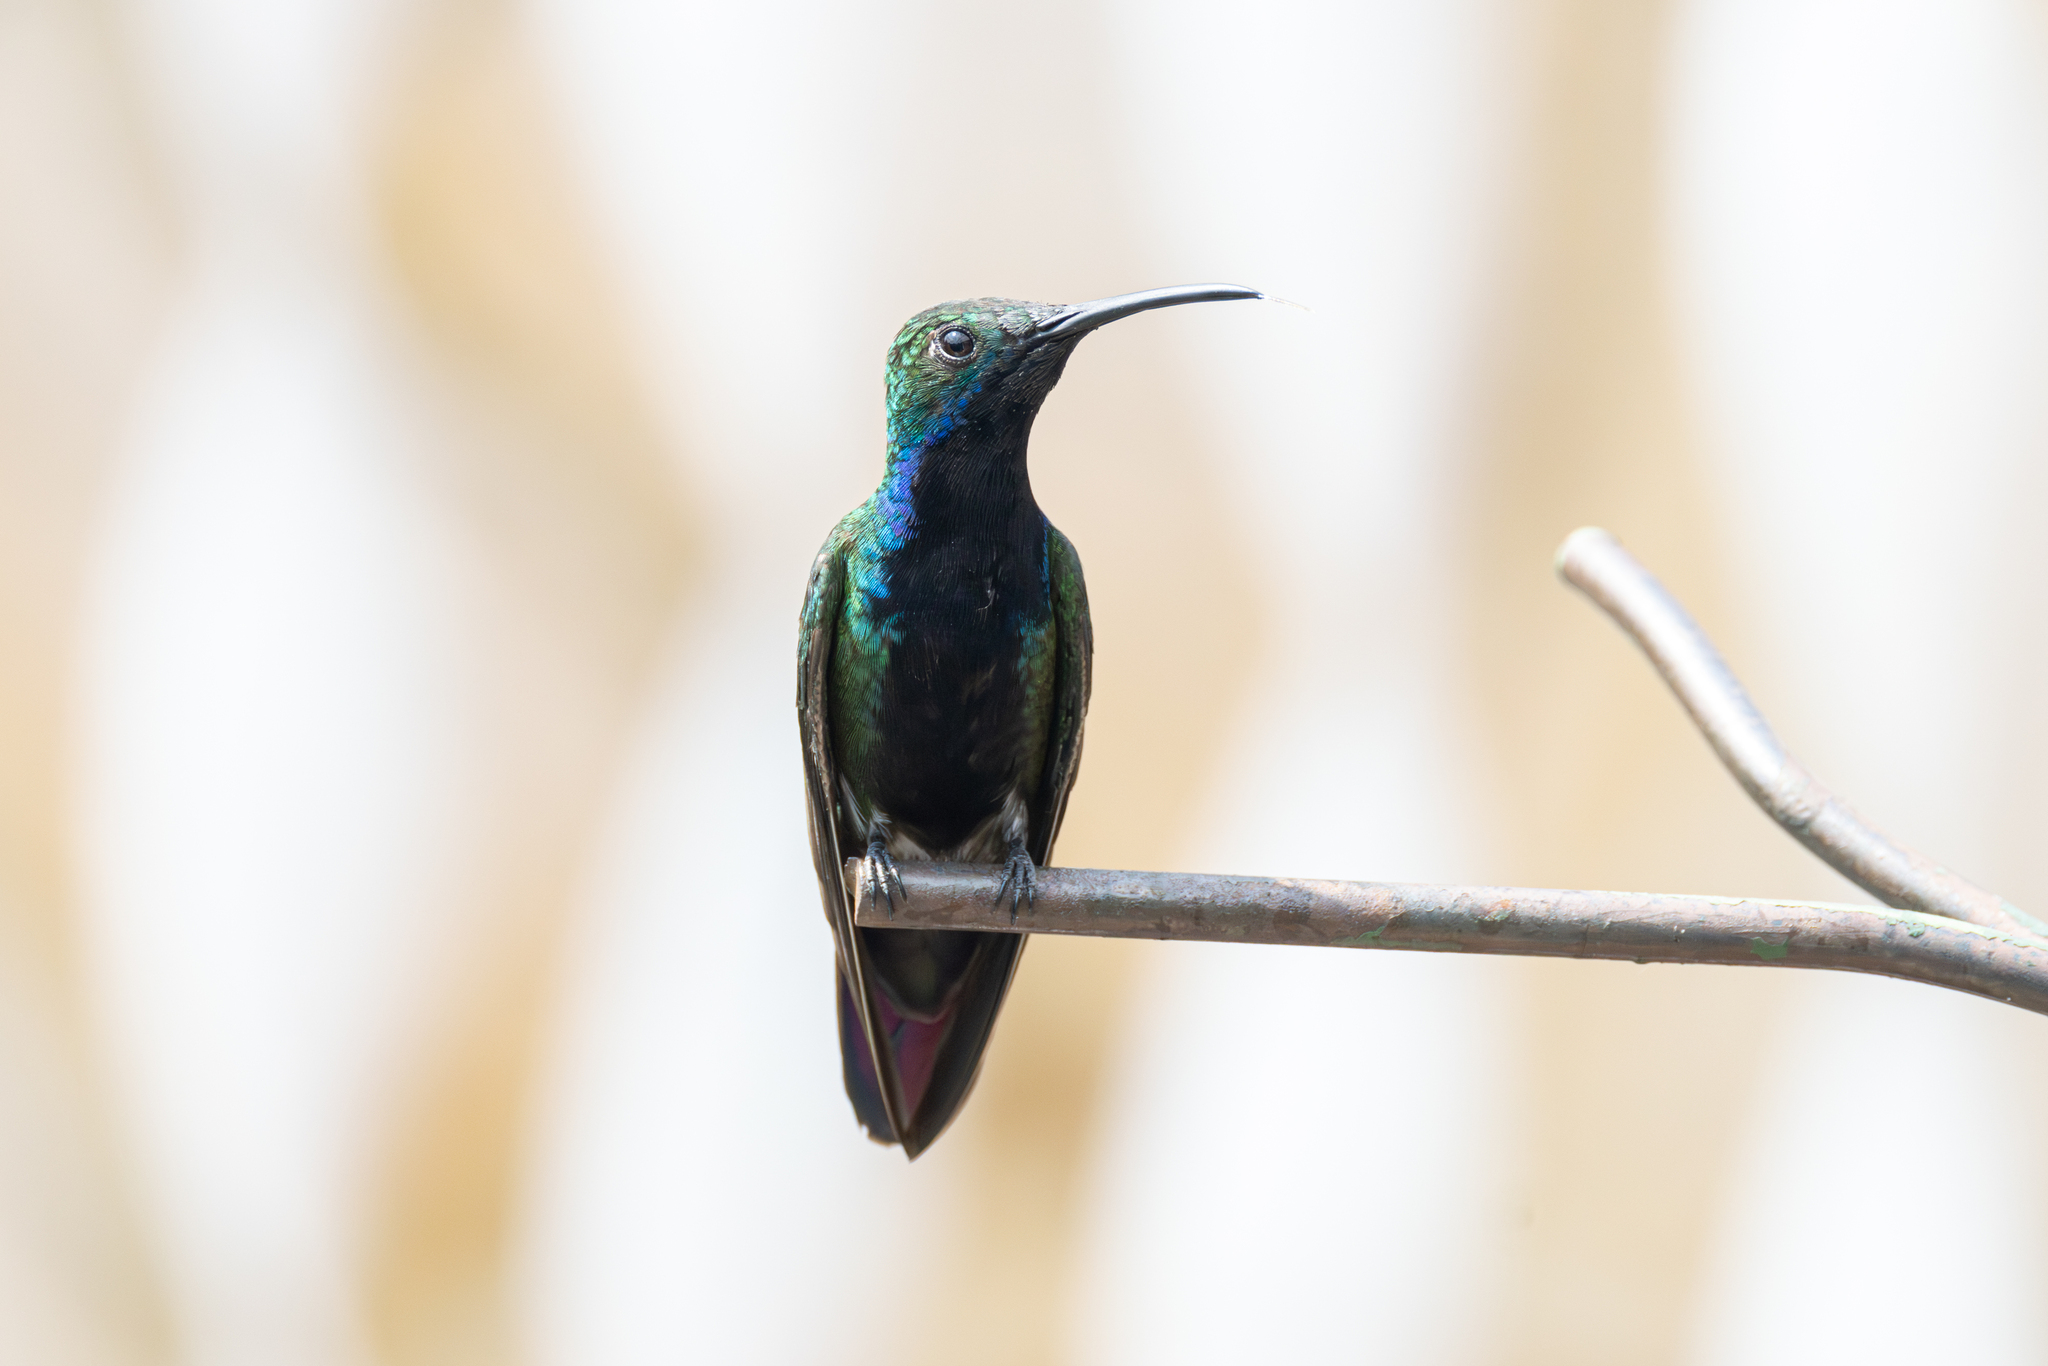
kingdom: Animalia
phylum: Chordata
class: Aves
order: Apodiformes
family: Trochilidae
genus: Anthracothorax
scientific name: Anthracothorax nigricollis
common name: Black-throated mango
